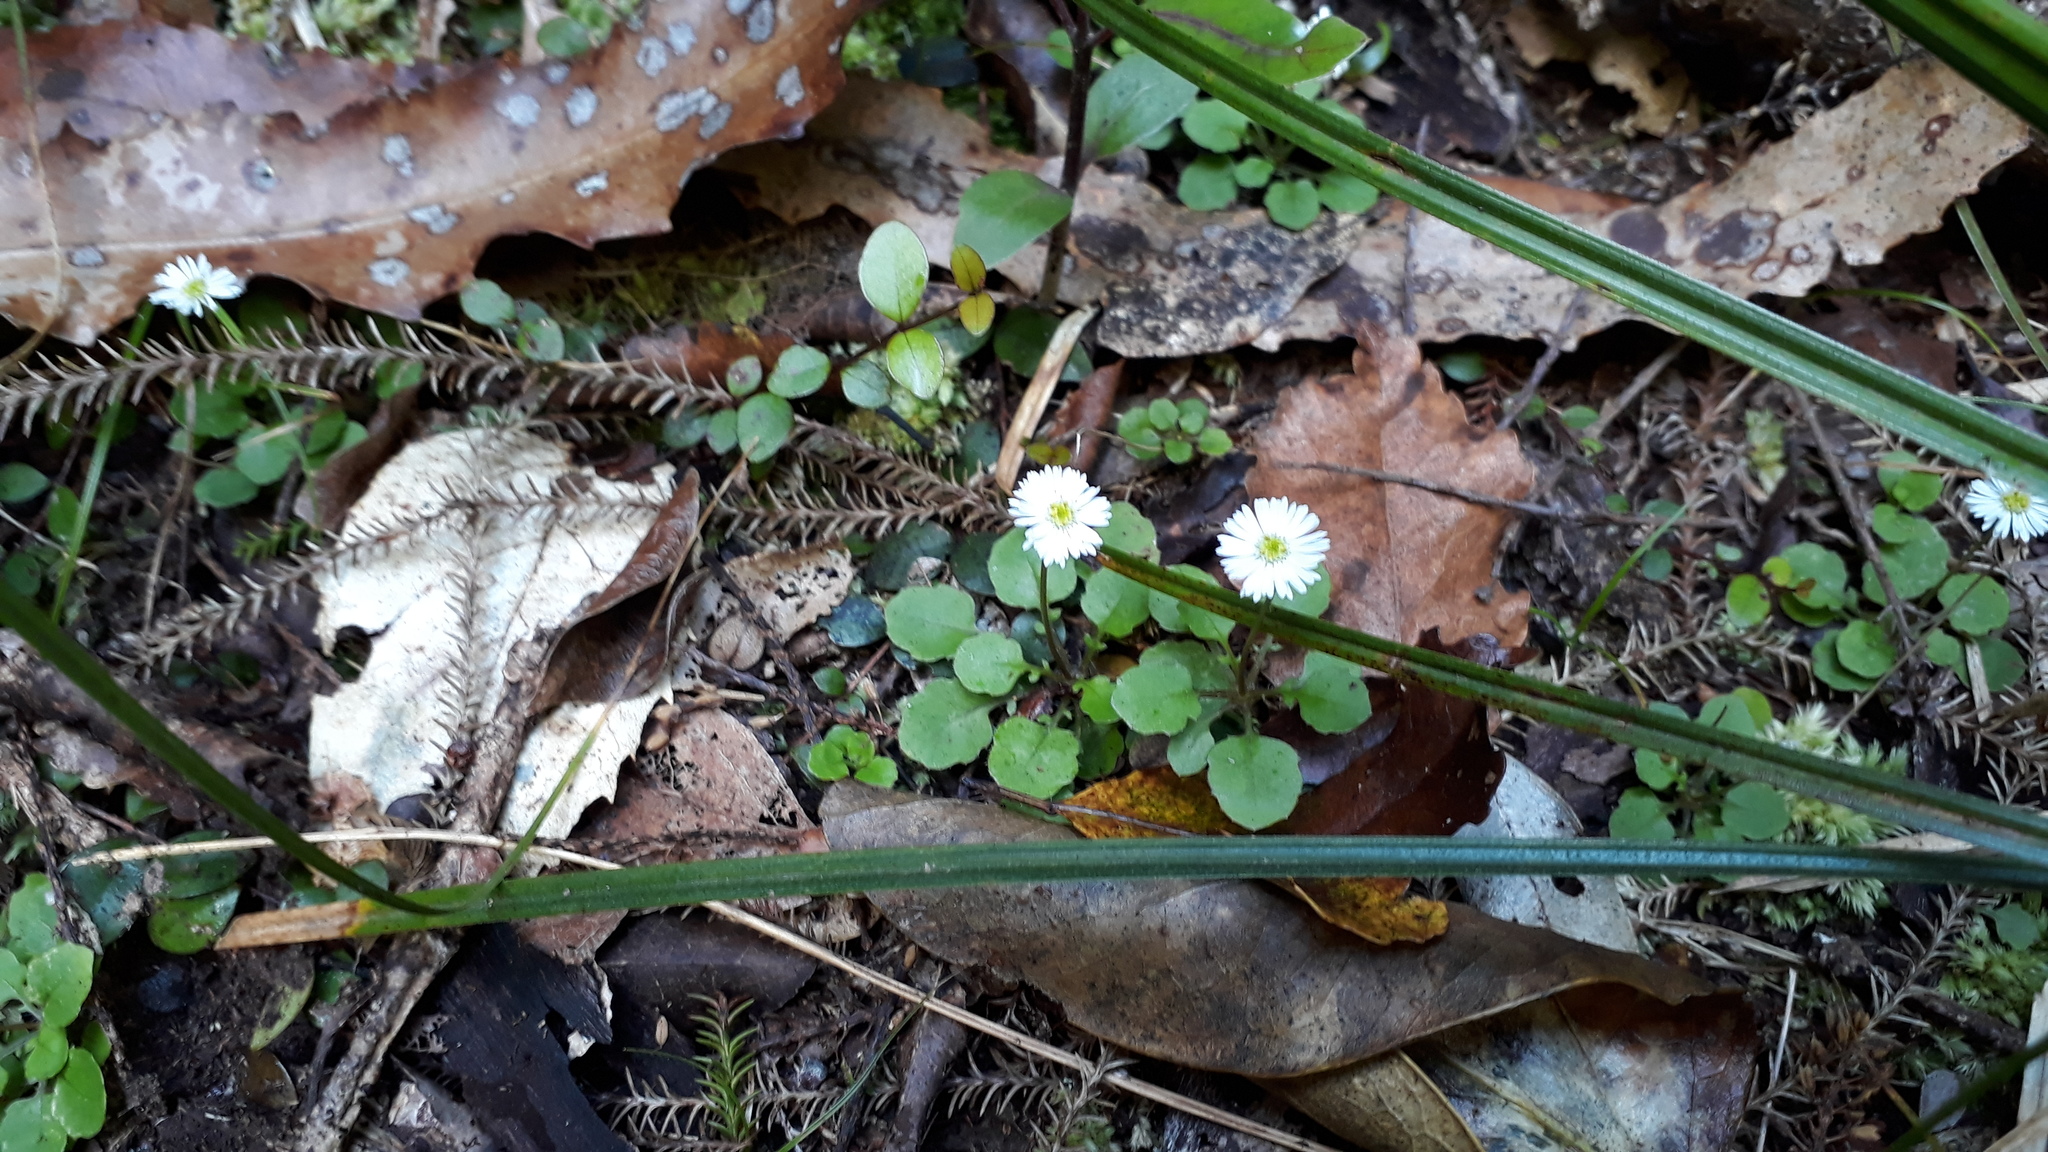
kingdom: Plantae
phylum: Tracheophyta
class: Magnoliopsida
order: Asterales
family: Asteraceae
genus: Lagenophora
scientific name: Lagenophora pumila
